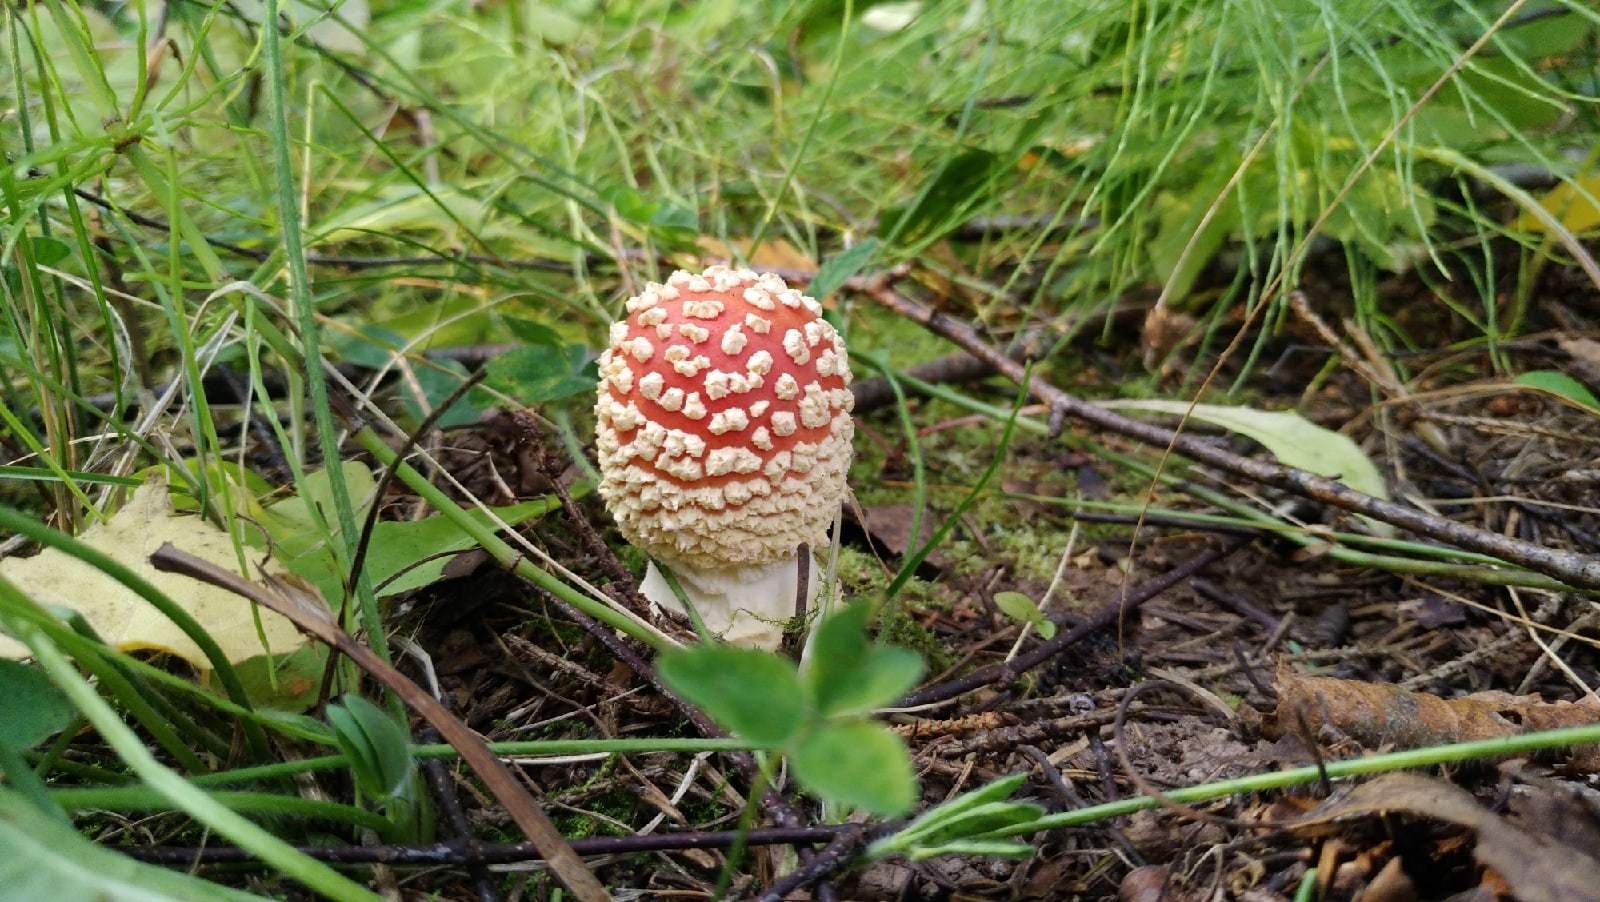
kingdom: Fungi
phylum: Basidiomycota
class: Agaricomycetes
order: Agaricales
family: Amanitaceae
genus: Amanita
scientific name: Amanita muscaria
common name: Fly agaric
